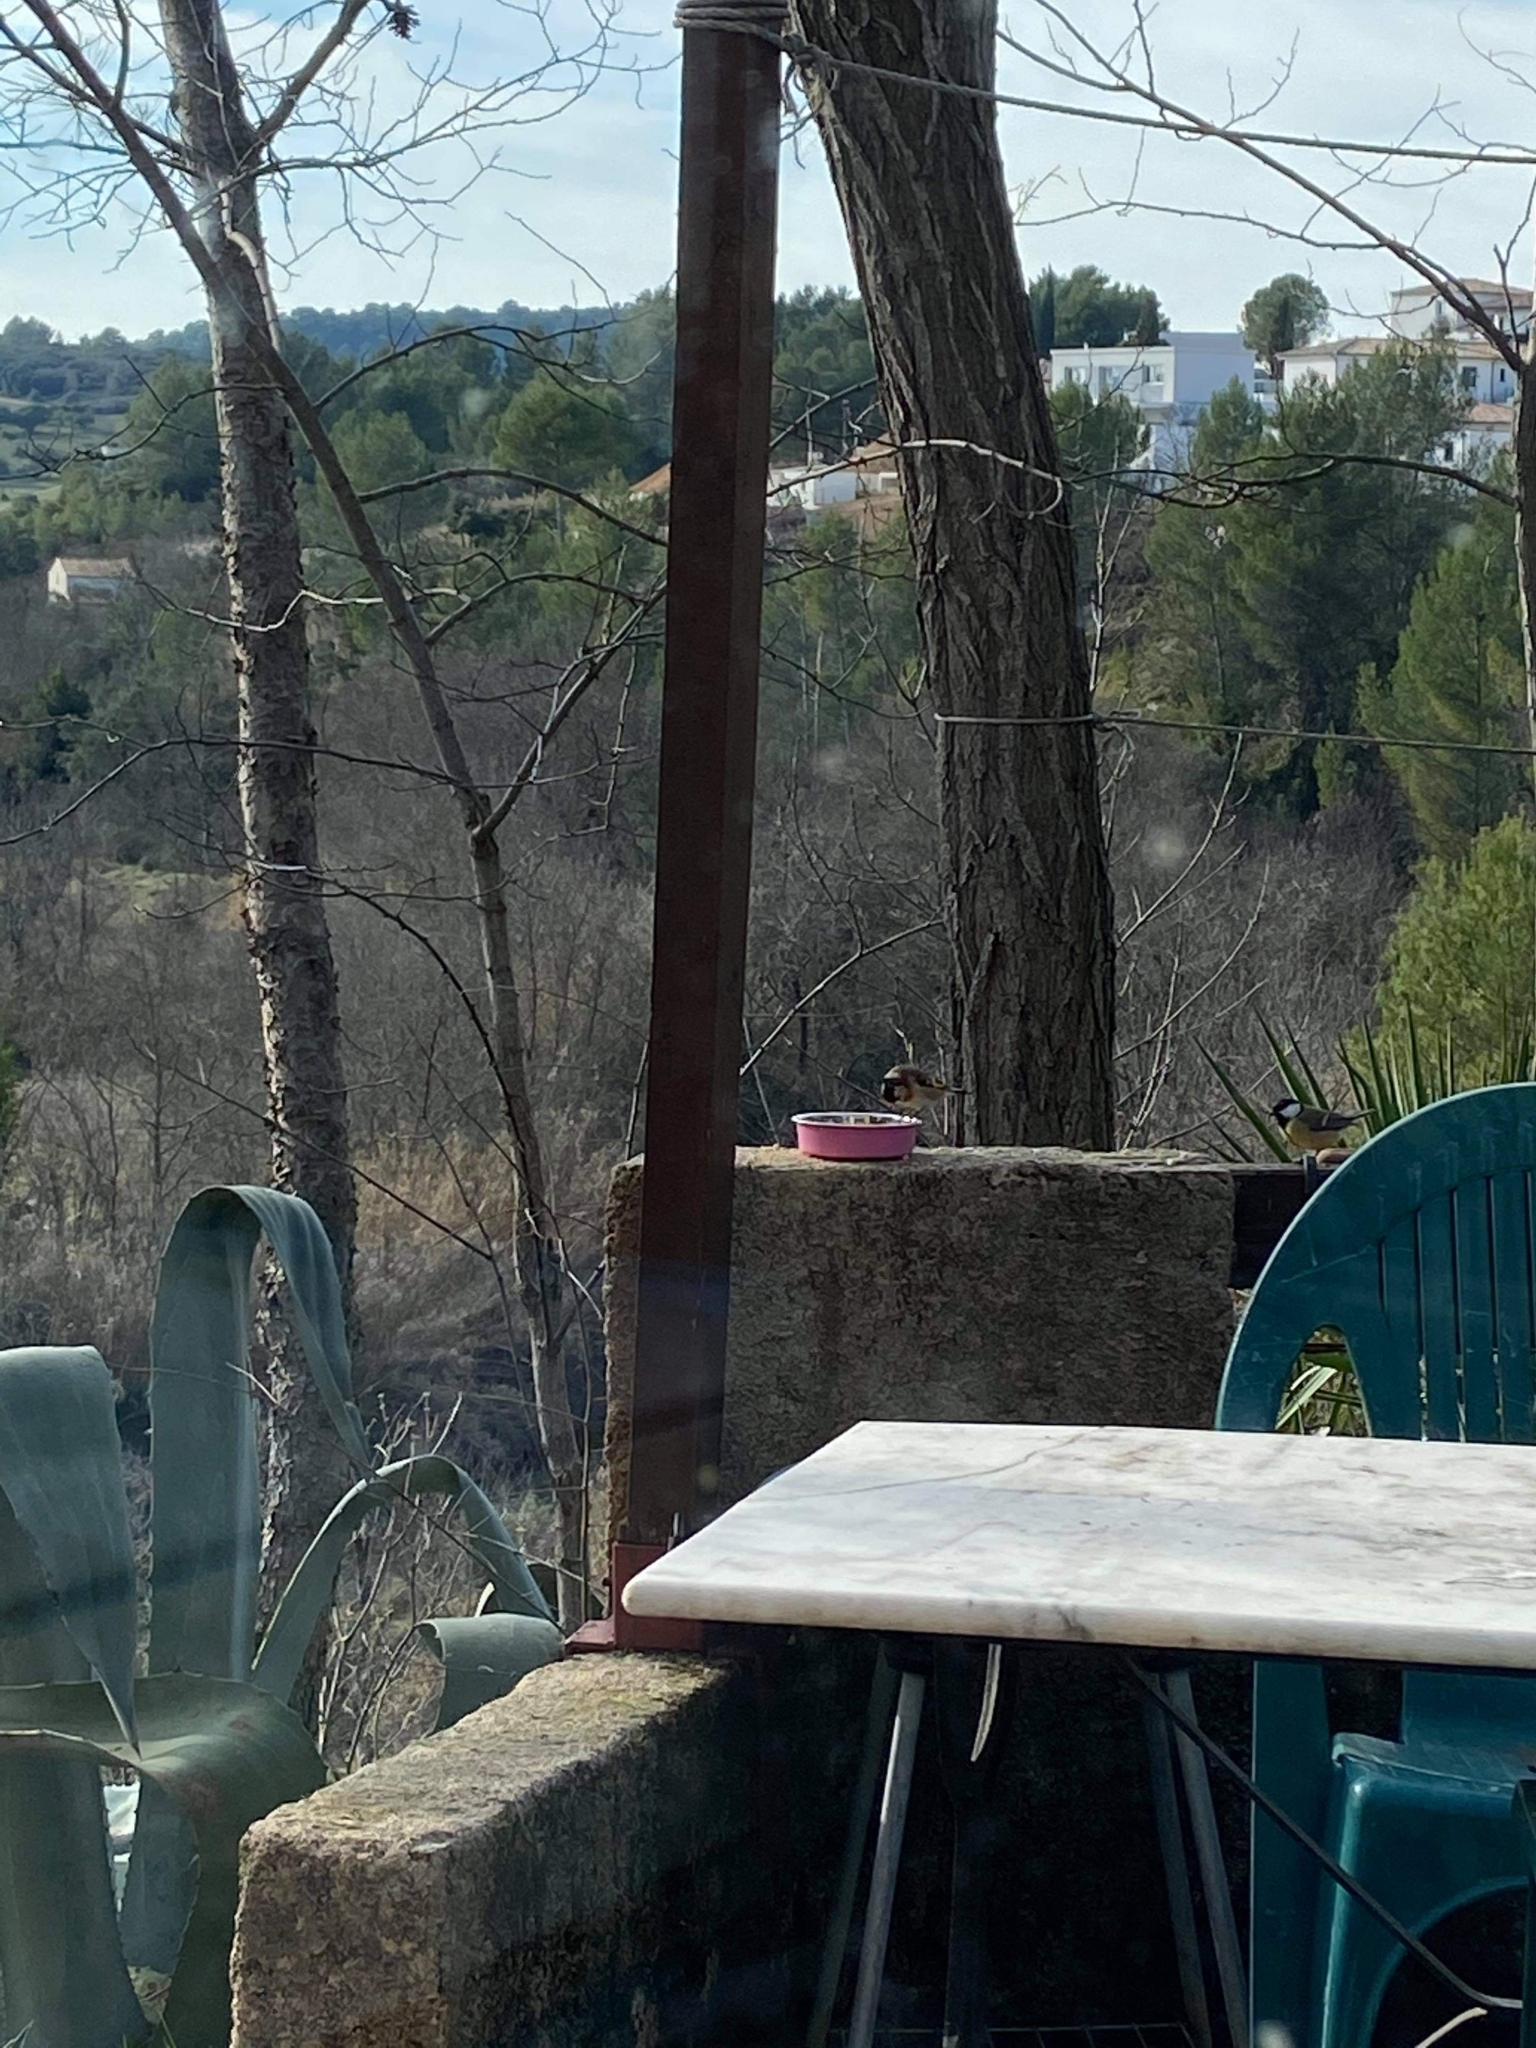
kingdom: Animalia
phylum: Chordata
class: Aves
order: Passeriformes
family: Fringillidae
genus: Carduelis
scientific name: Carduelis carduelis
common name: European goldfinch
